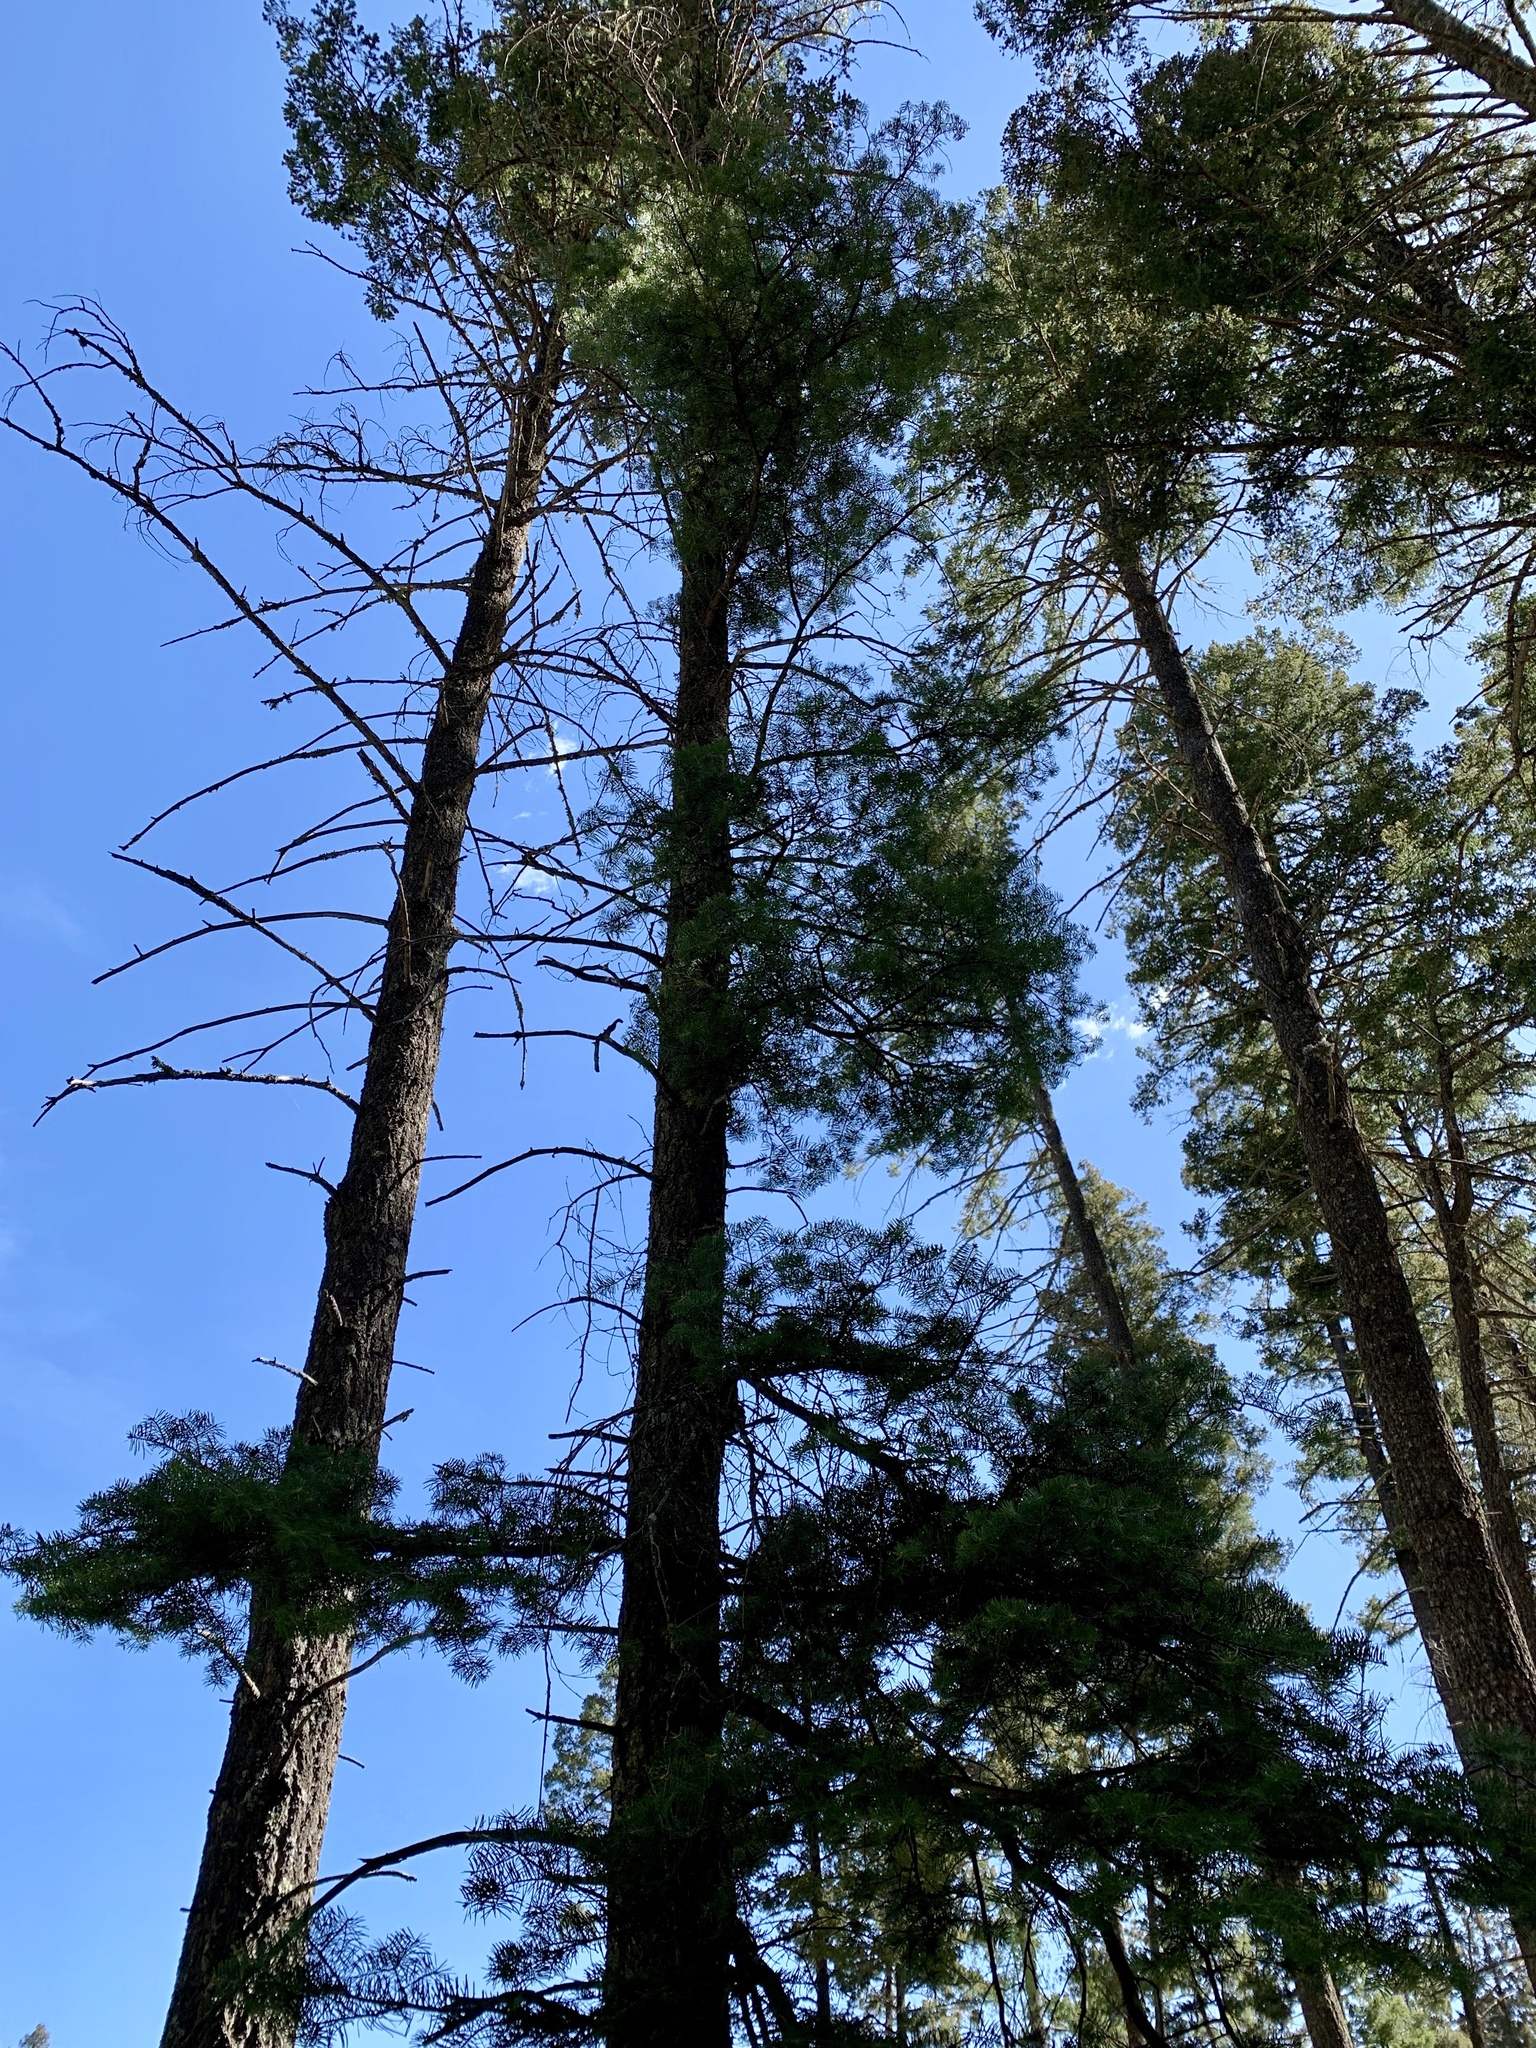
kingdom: Plantae
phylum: Tracheophyta
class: Pinopsida
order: Pinales
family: Pinaceae
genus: Abies
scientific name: Abies concolor
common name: Colorado fir
